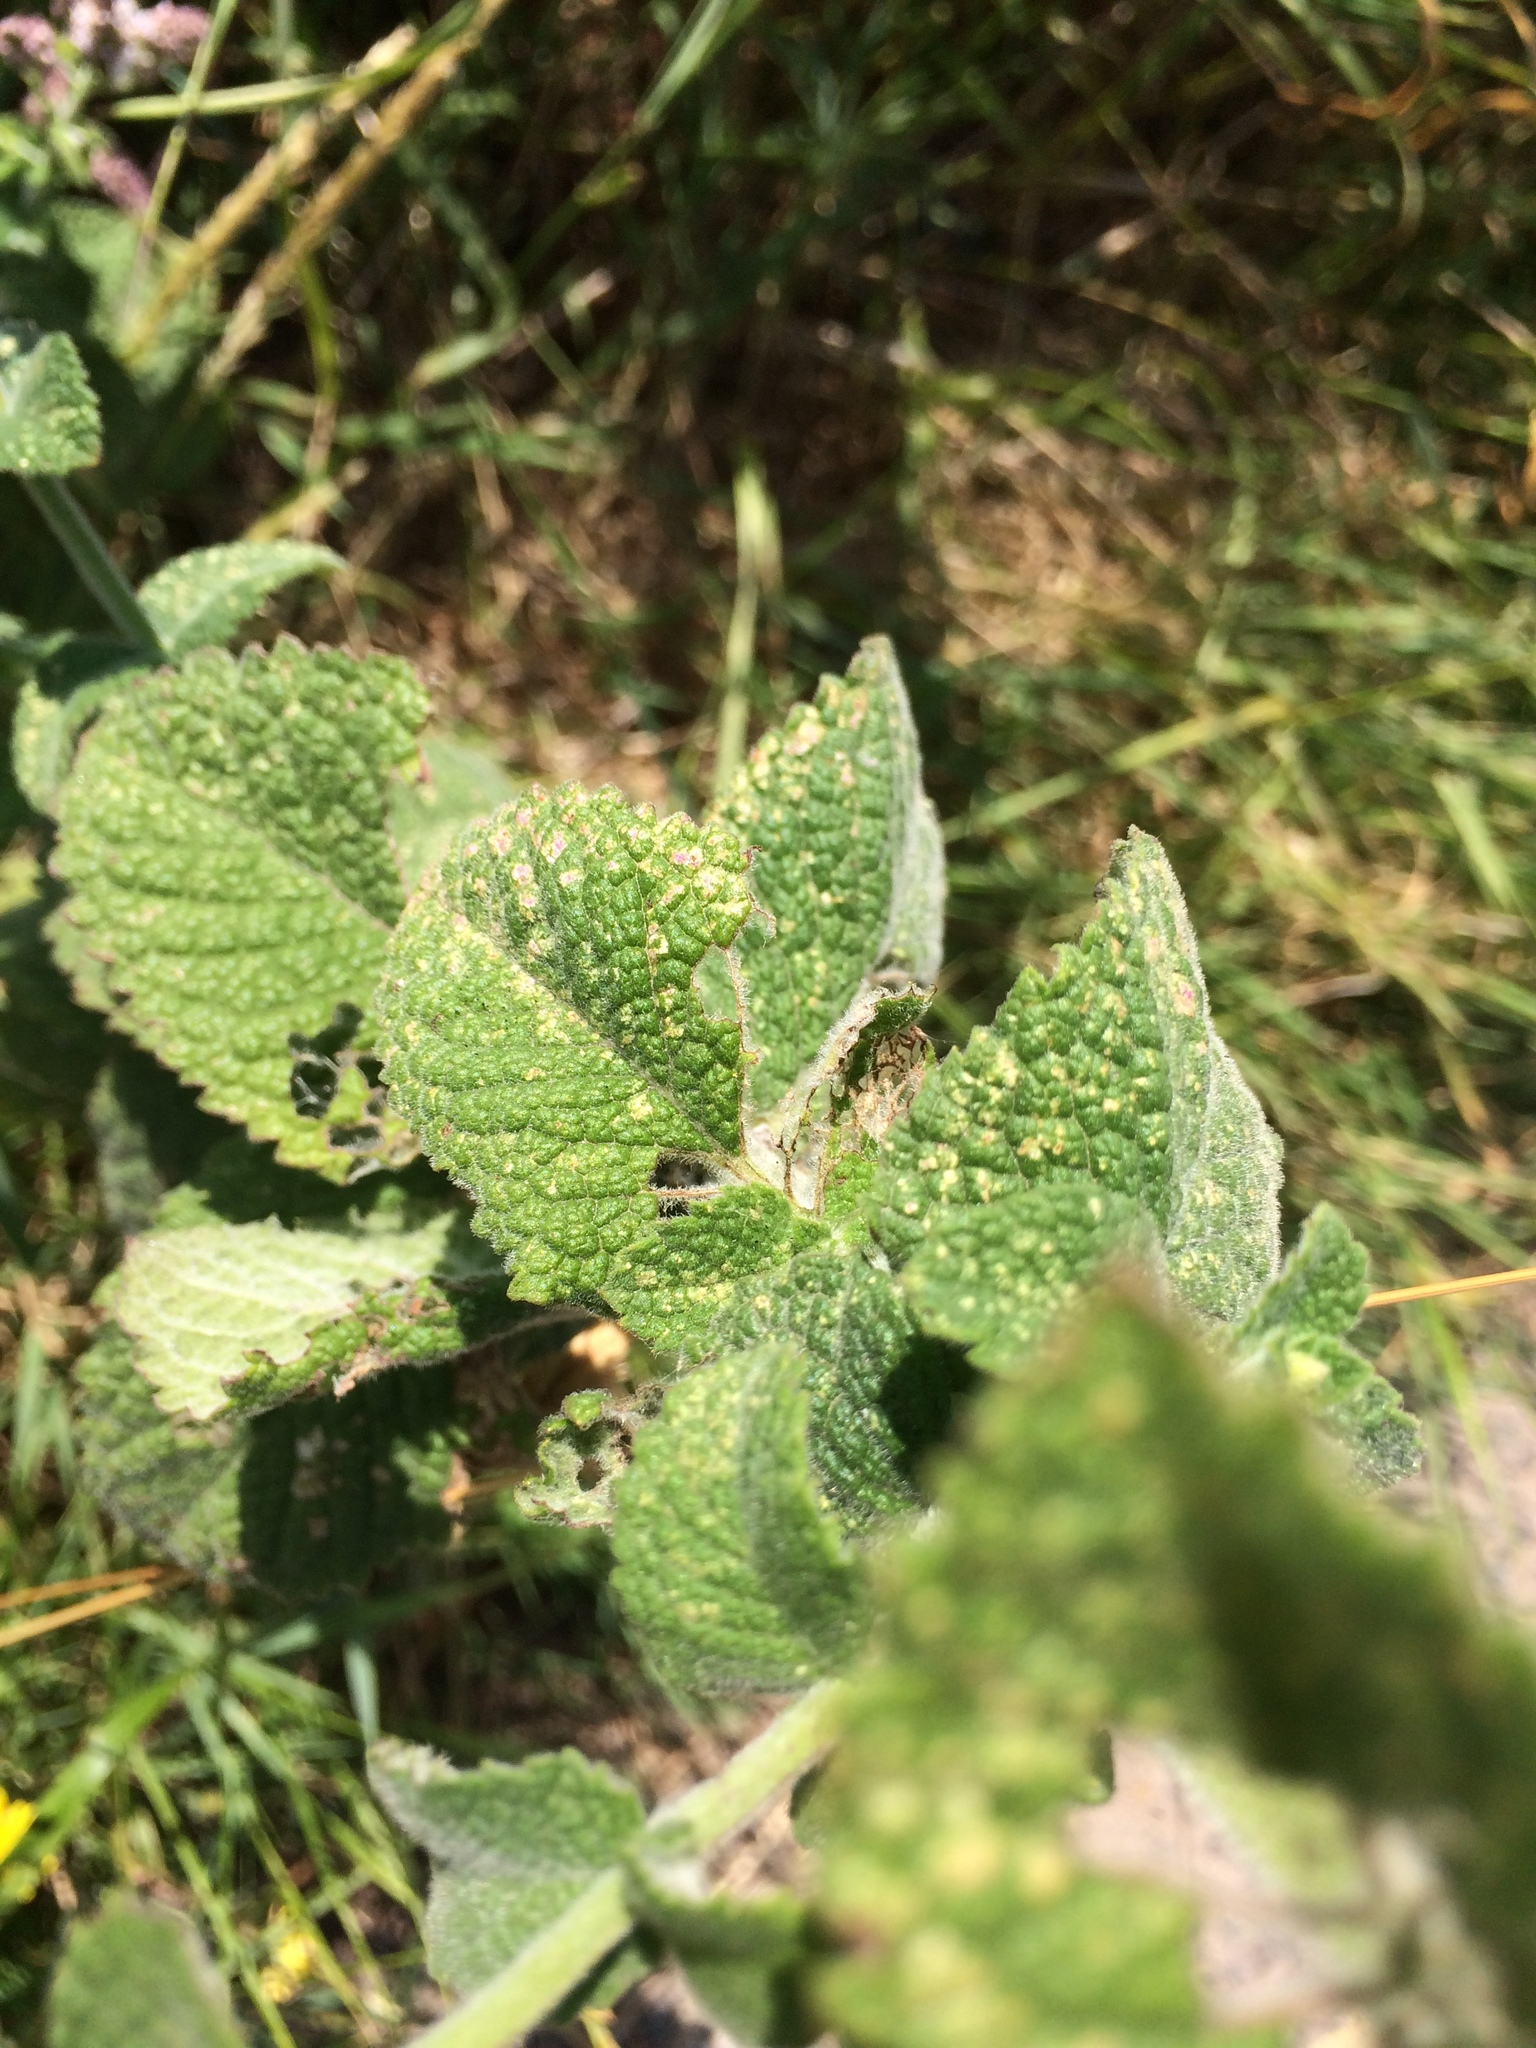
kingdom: Plantae
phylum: Tracheophyta
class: Magnoliopsida
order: Lamiales
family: Lamiaceae
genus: Mentha
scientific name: Mentha villosa
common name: Apple mint
